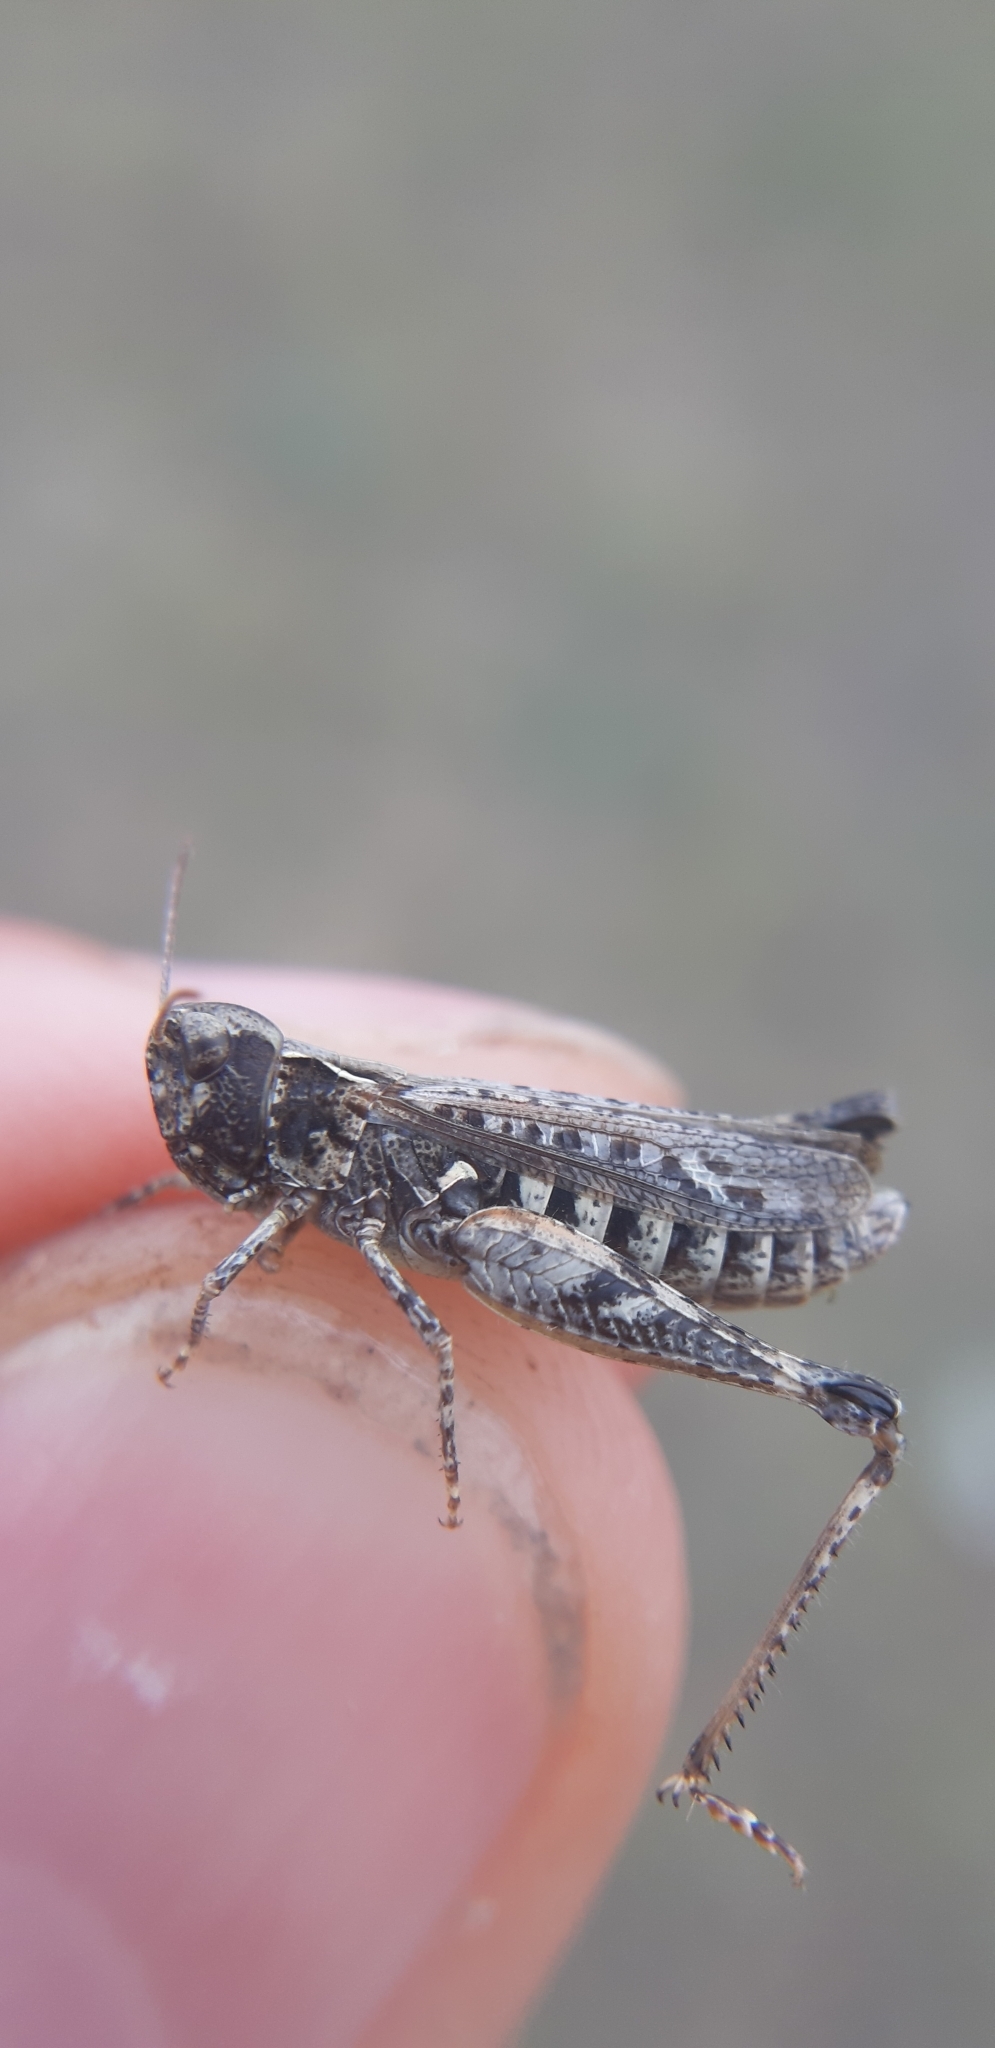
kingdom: Animalia
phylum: Arthropoda
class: Insecta
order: Orthoptera
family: Acrididae
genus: Myrmeleotettix
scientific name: Myrmeleotettix maculatus
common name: Mottled grasshopper
